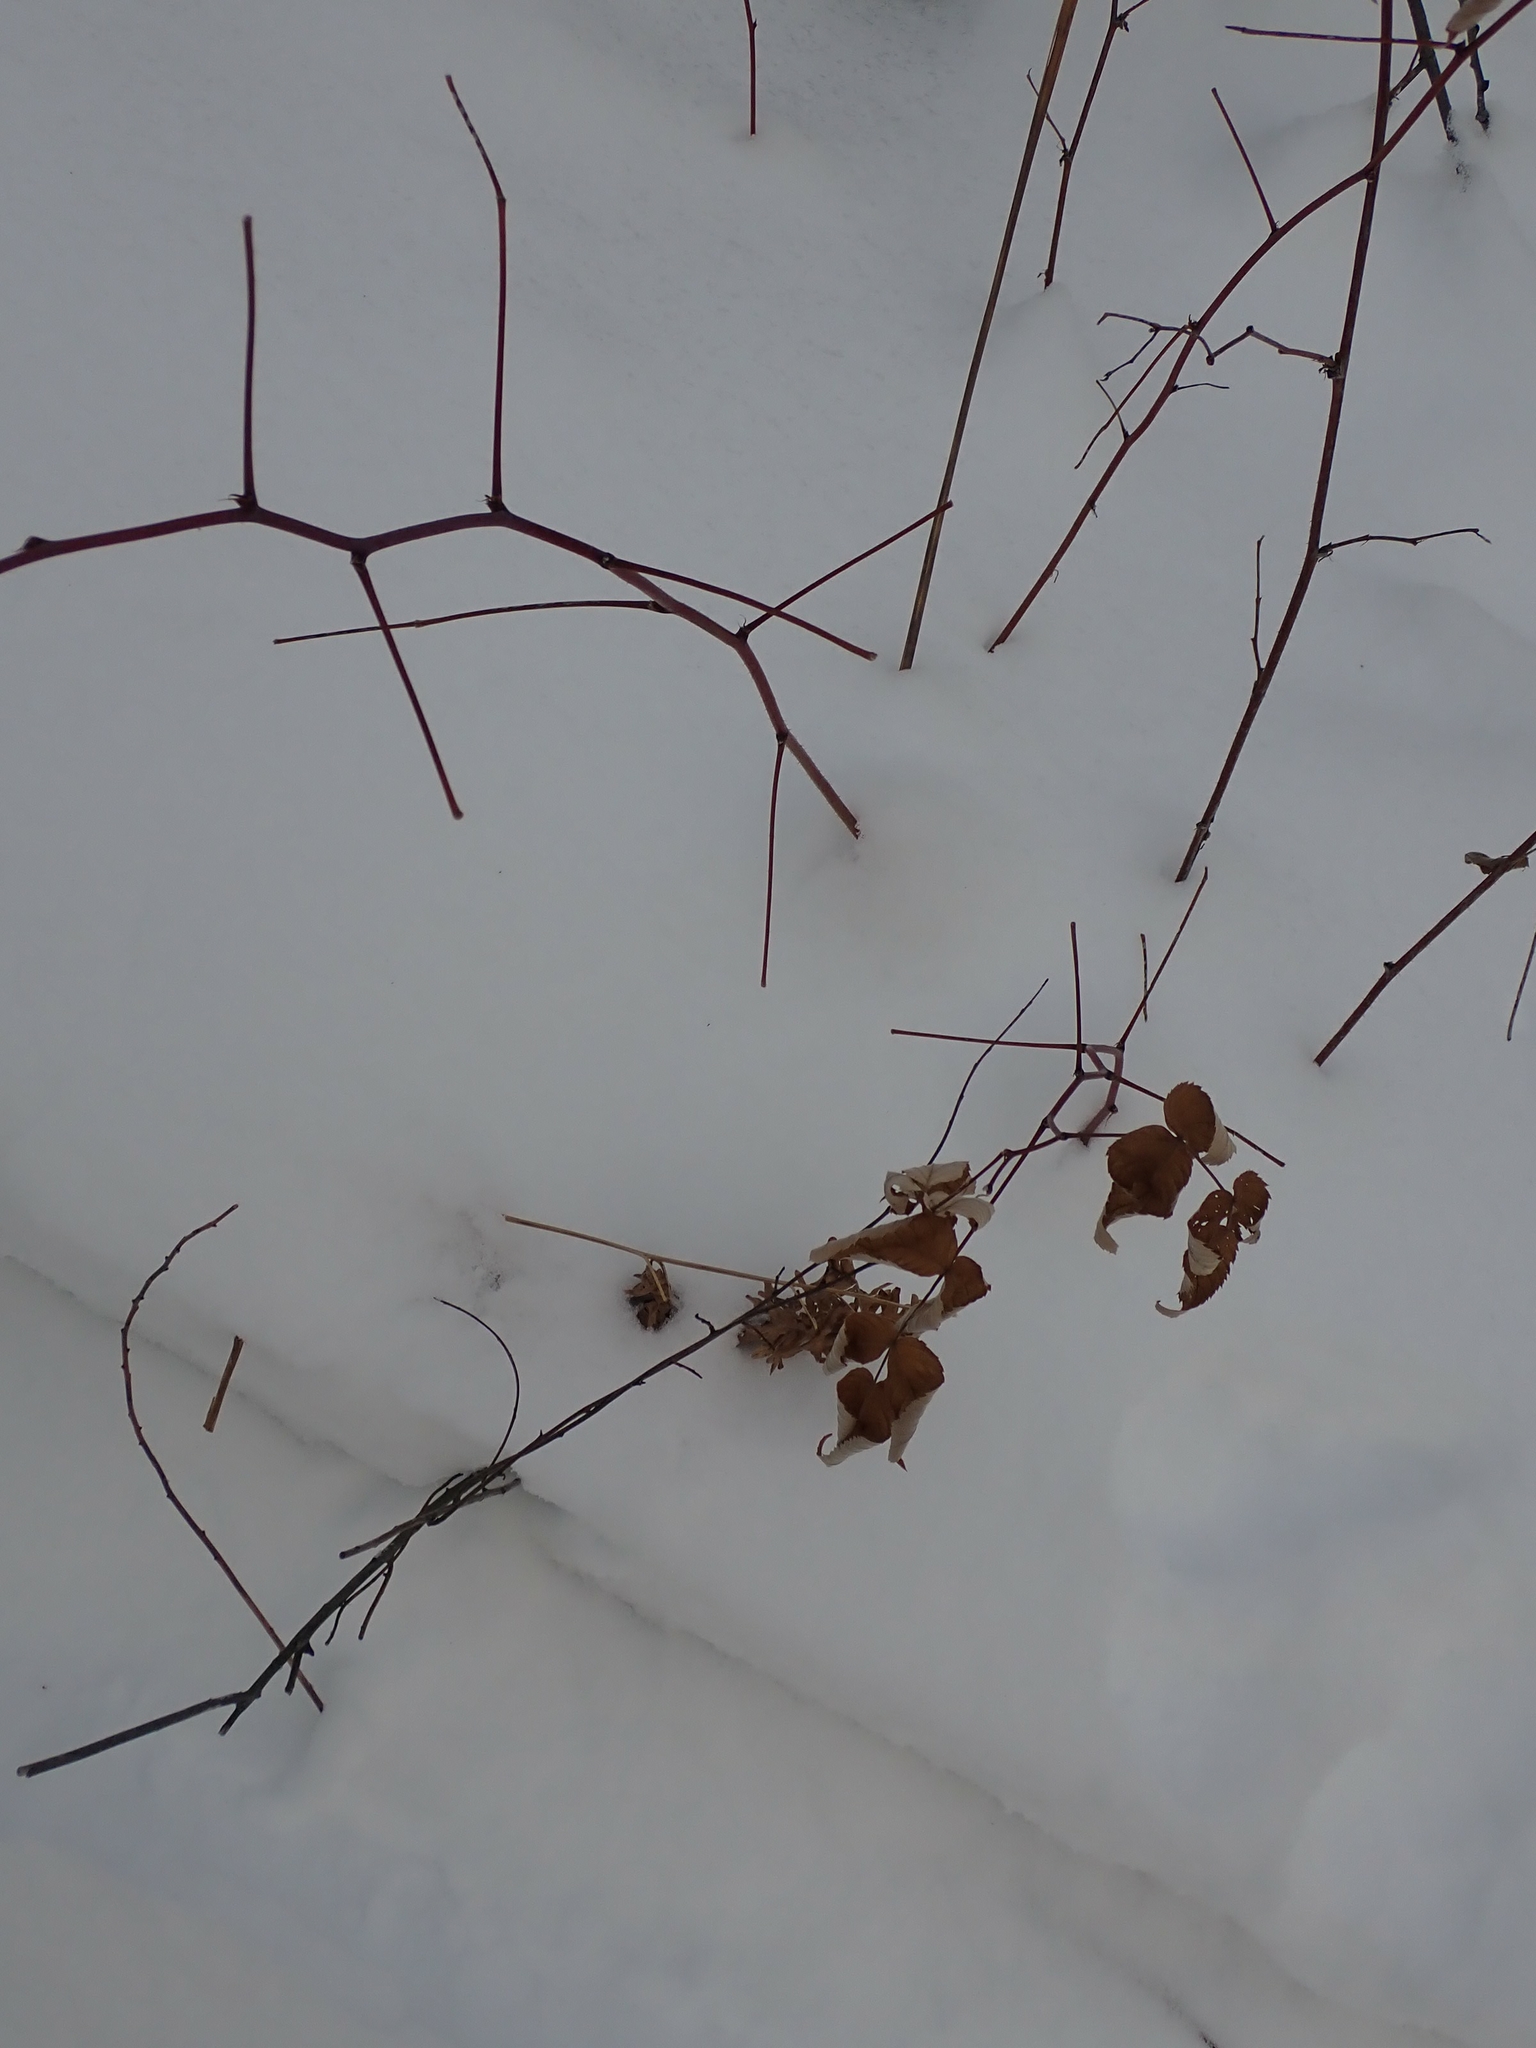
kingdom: Plantae
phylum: Tracheophyta
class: Magnoliopsida
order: Rosales
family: Rosaceae
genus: Rubus
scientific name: Rubus idaeus
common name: Raspberry
